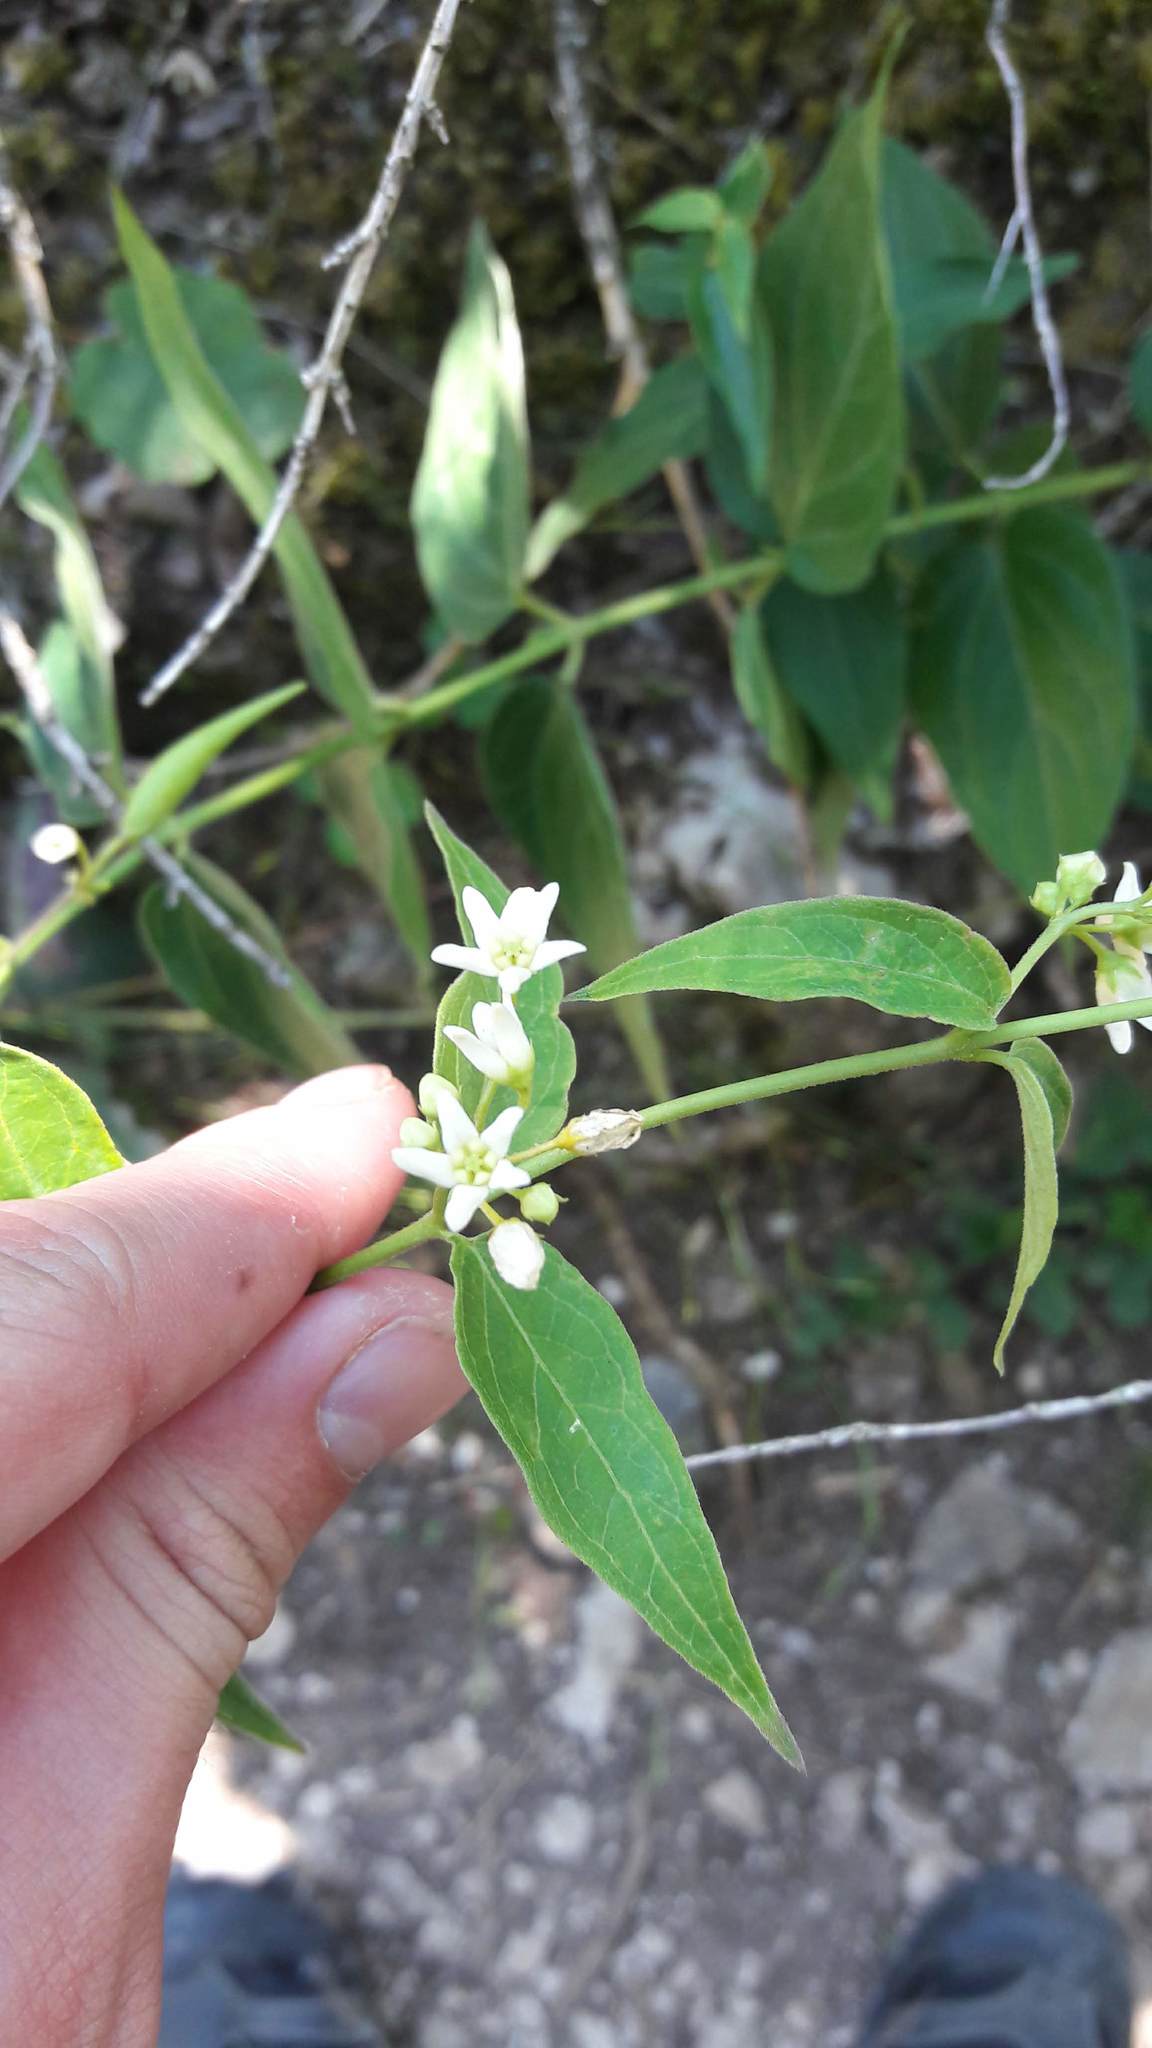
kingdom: Plantae
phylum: Tracheophyta
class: Magnoliopsida
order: Gentianales
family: Apocynaceae
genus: Vincetoxicum
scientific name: Vincetoxicum hirundinaria
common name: White swallowwort
